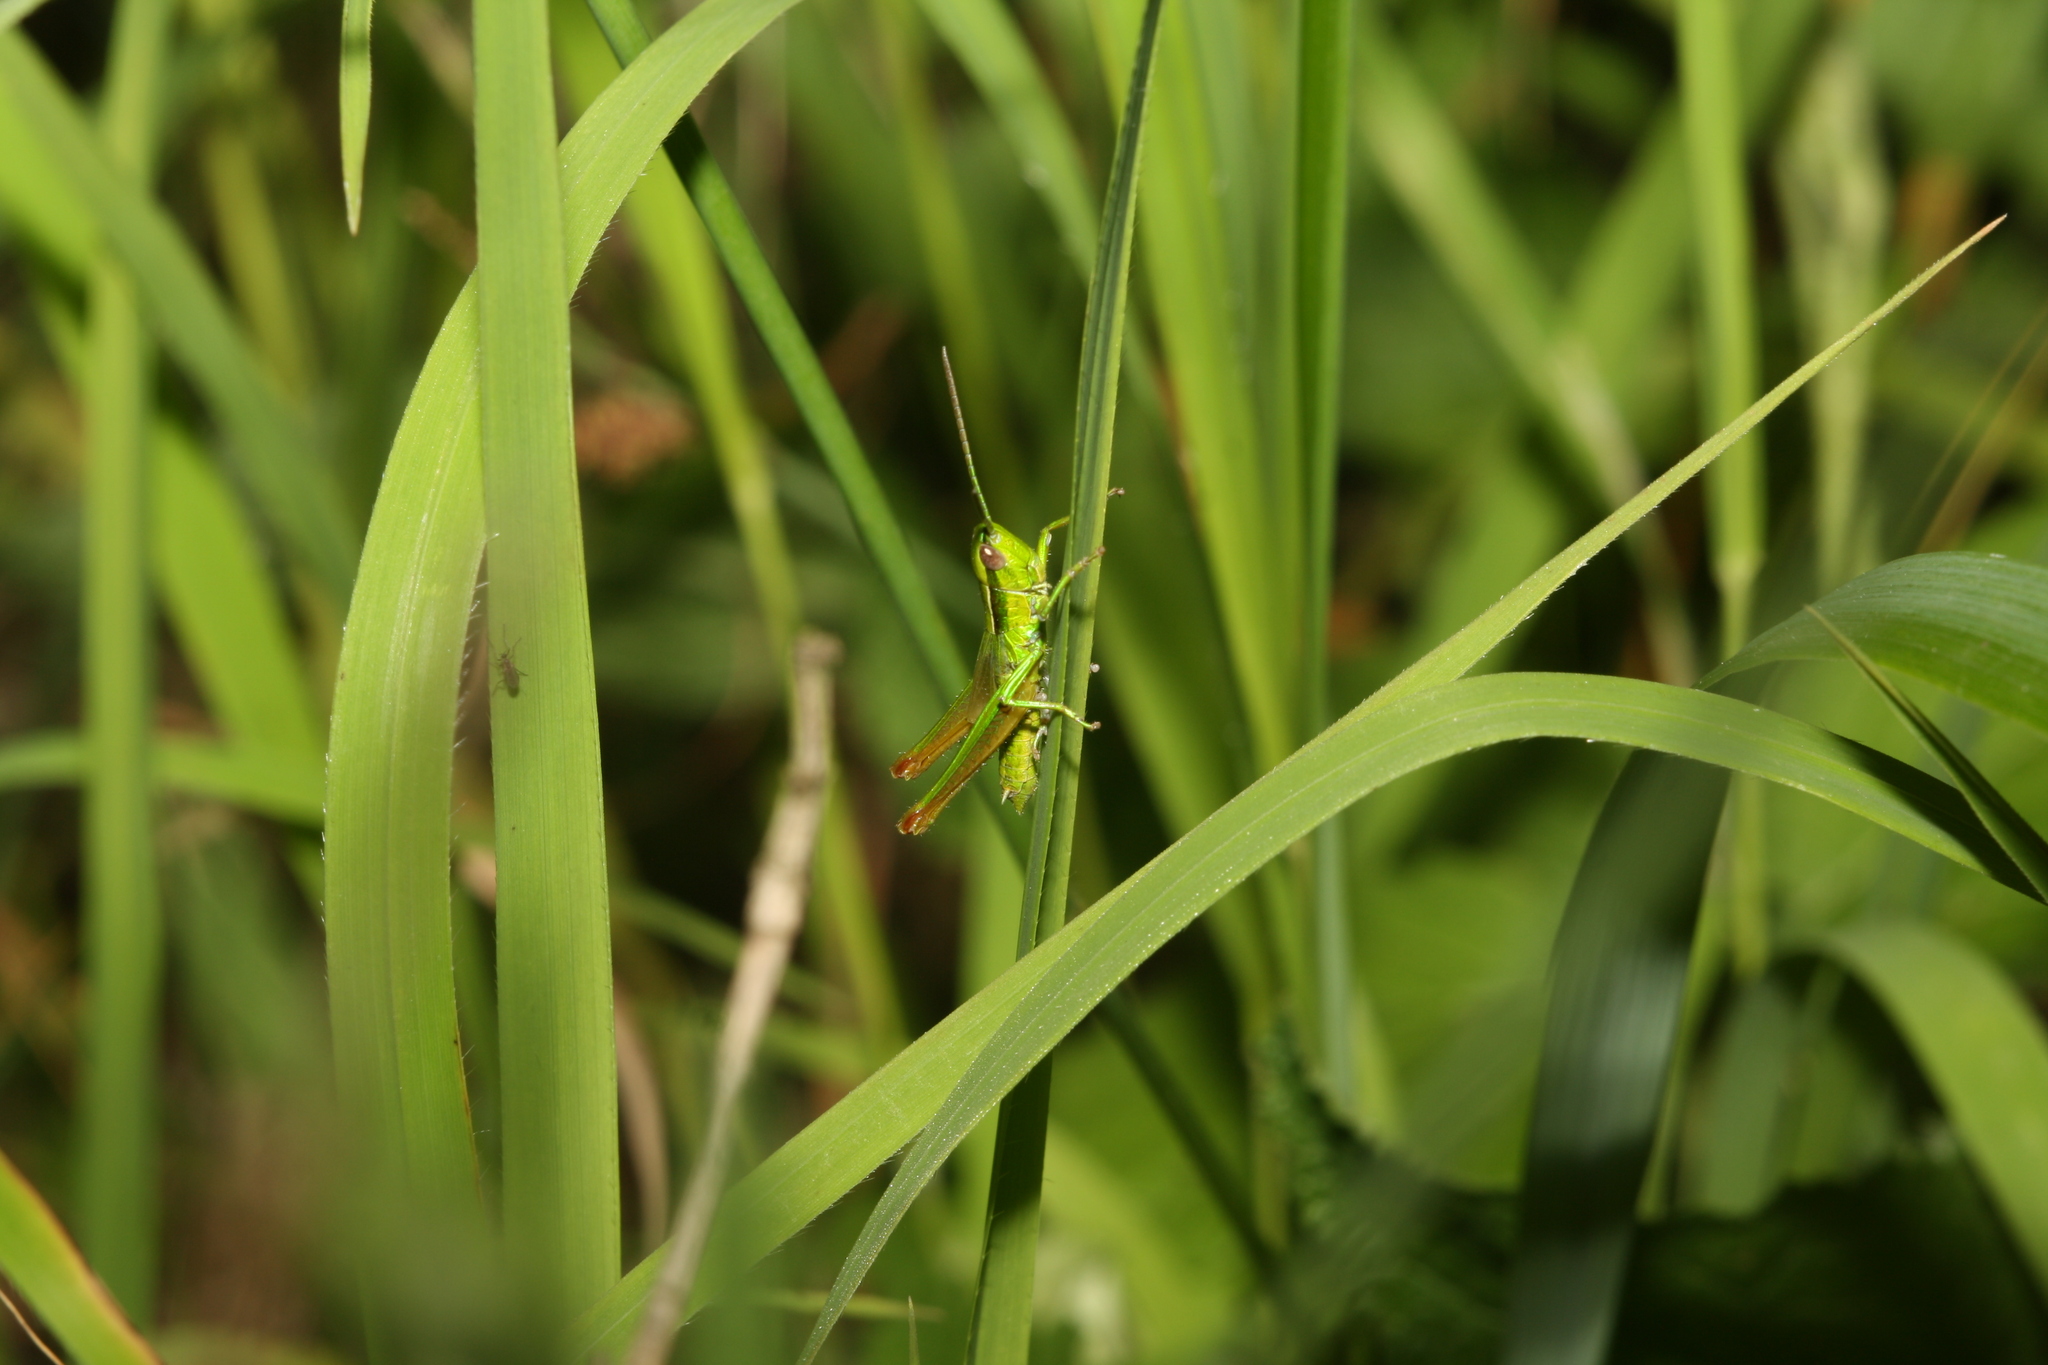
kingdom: Animalia
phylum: Arthropoda
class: Insecta
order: Orthoptera
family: Acrididae
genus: Euthystira
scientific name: Euthystira brachyptera
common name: Small gold grasshopper
